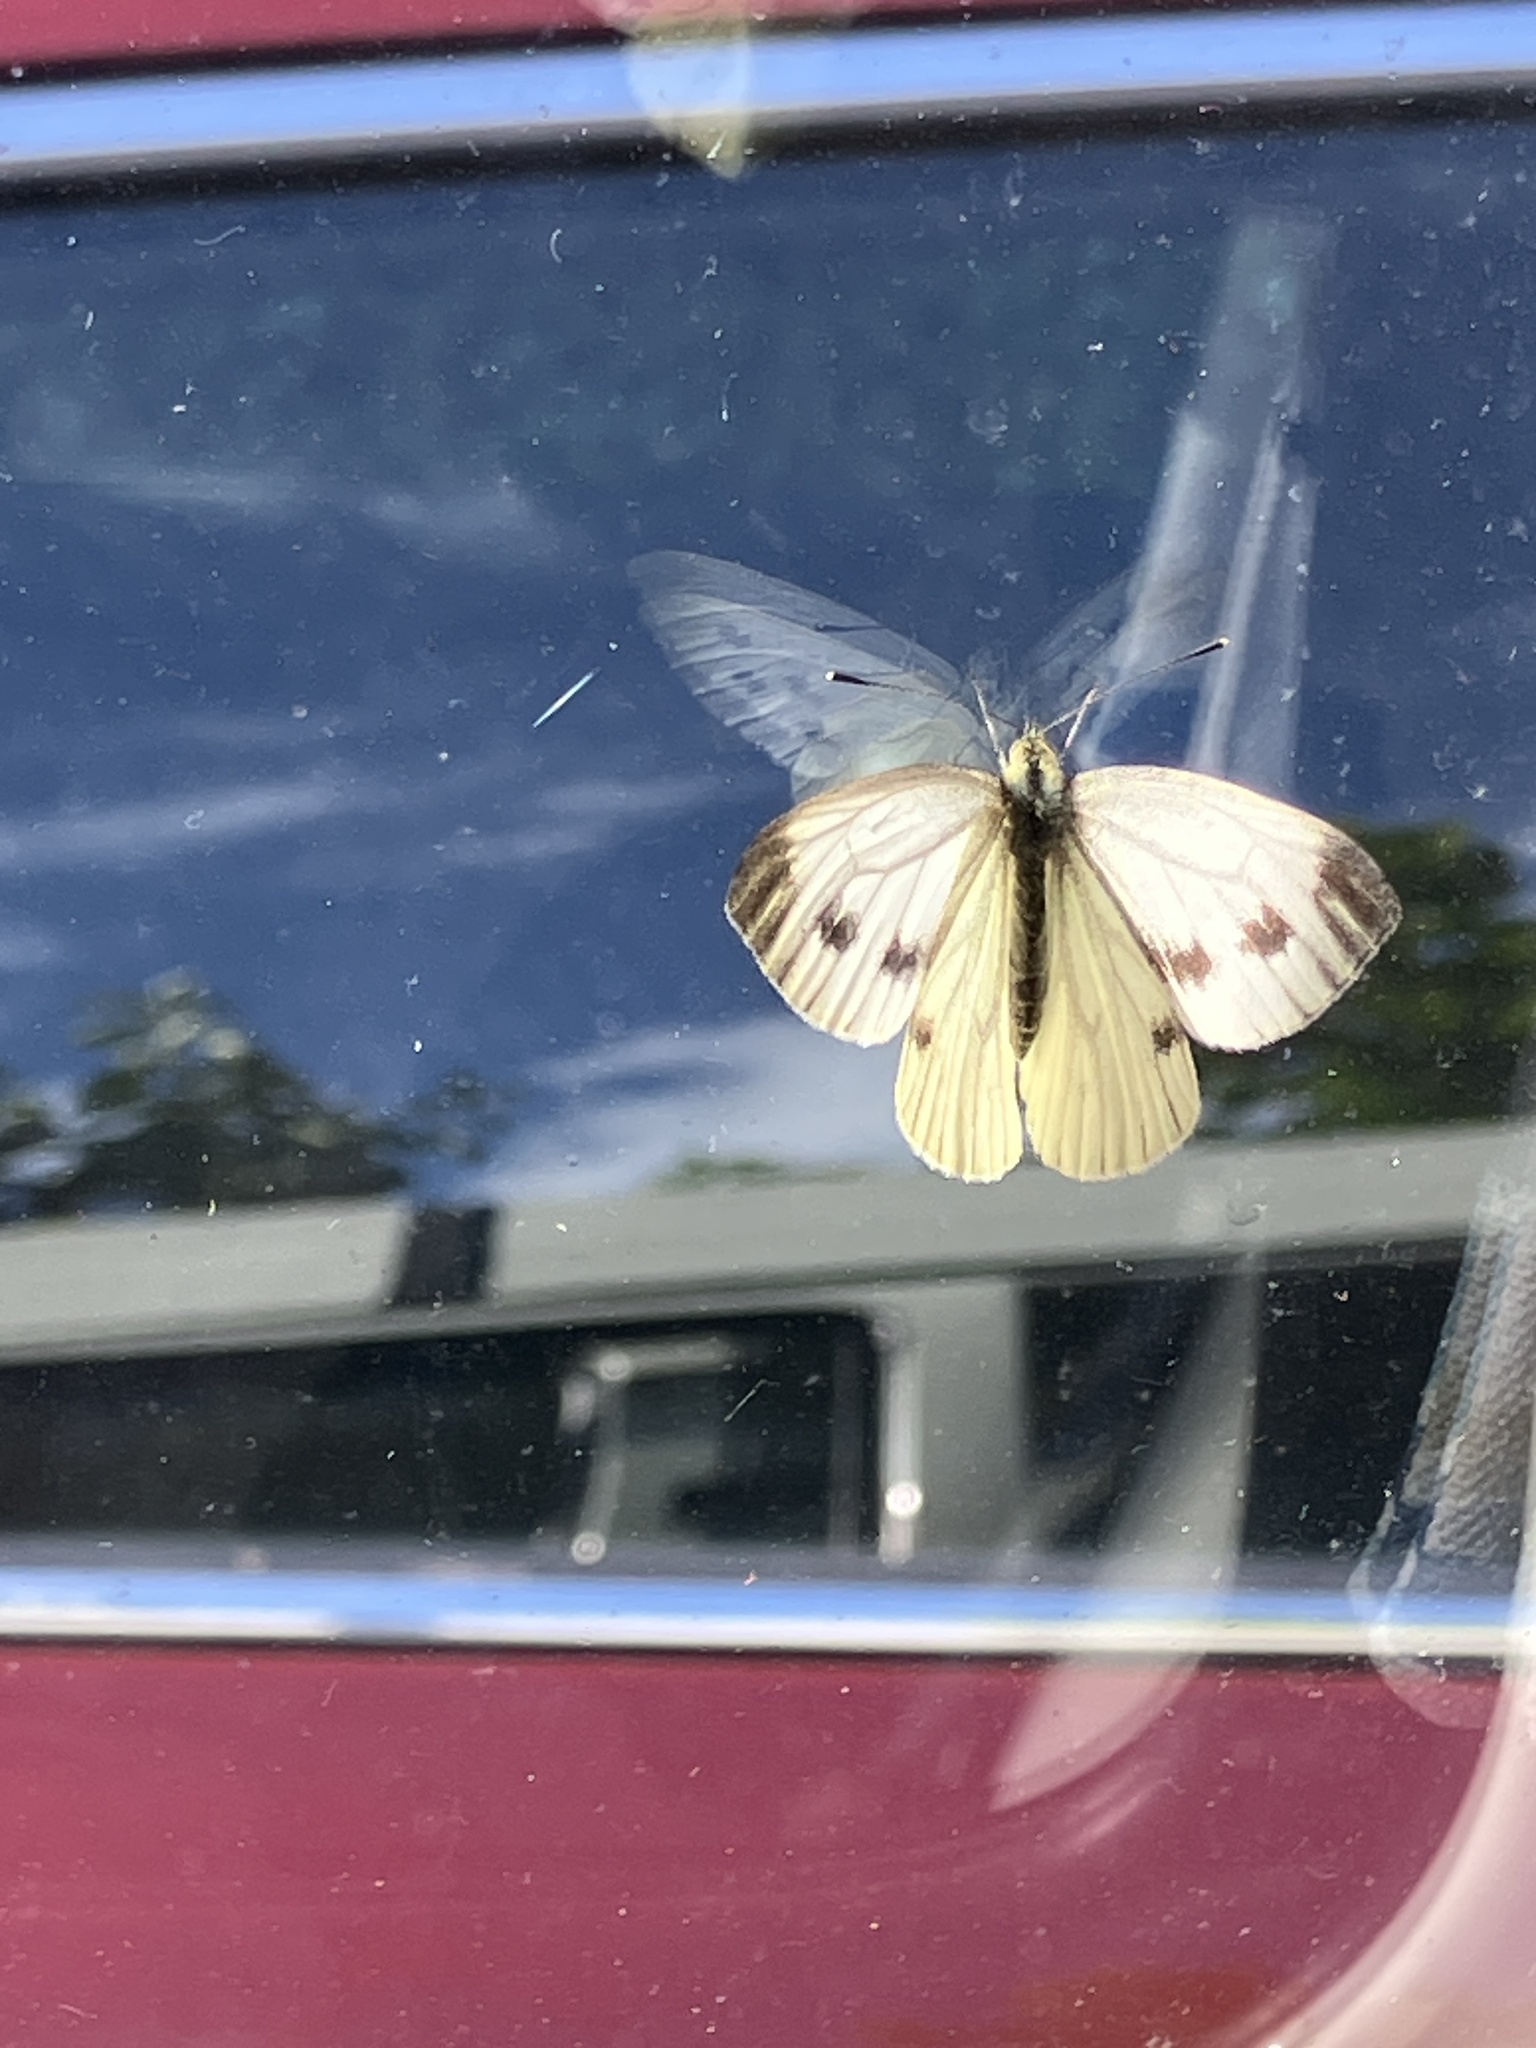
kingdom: Animalia
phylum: Arthropoda
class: Insecta
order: Lepidoptera
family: Pieridae
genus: Pieris
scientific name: Pieris napi
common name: Green-veined white
